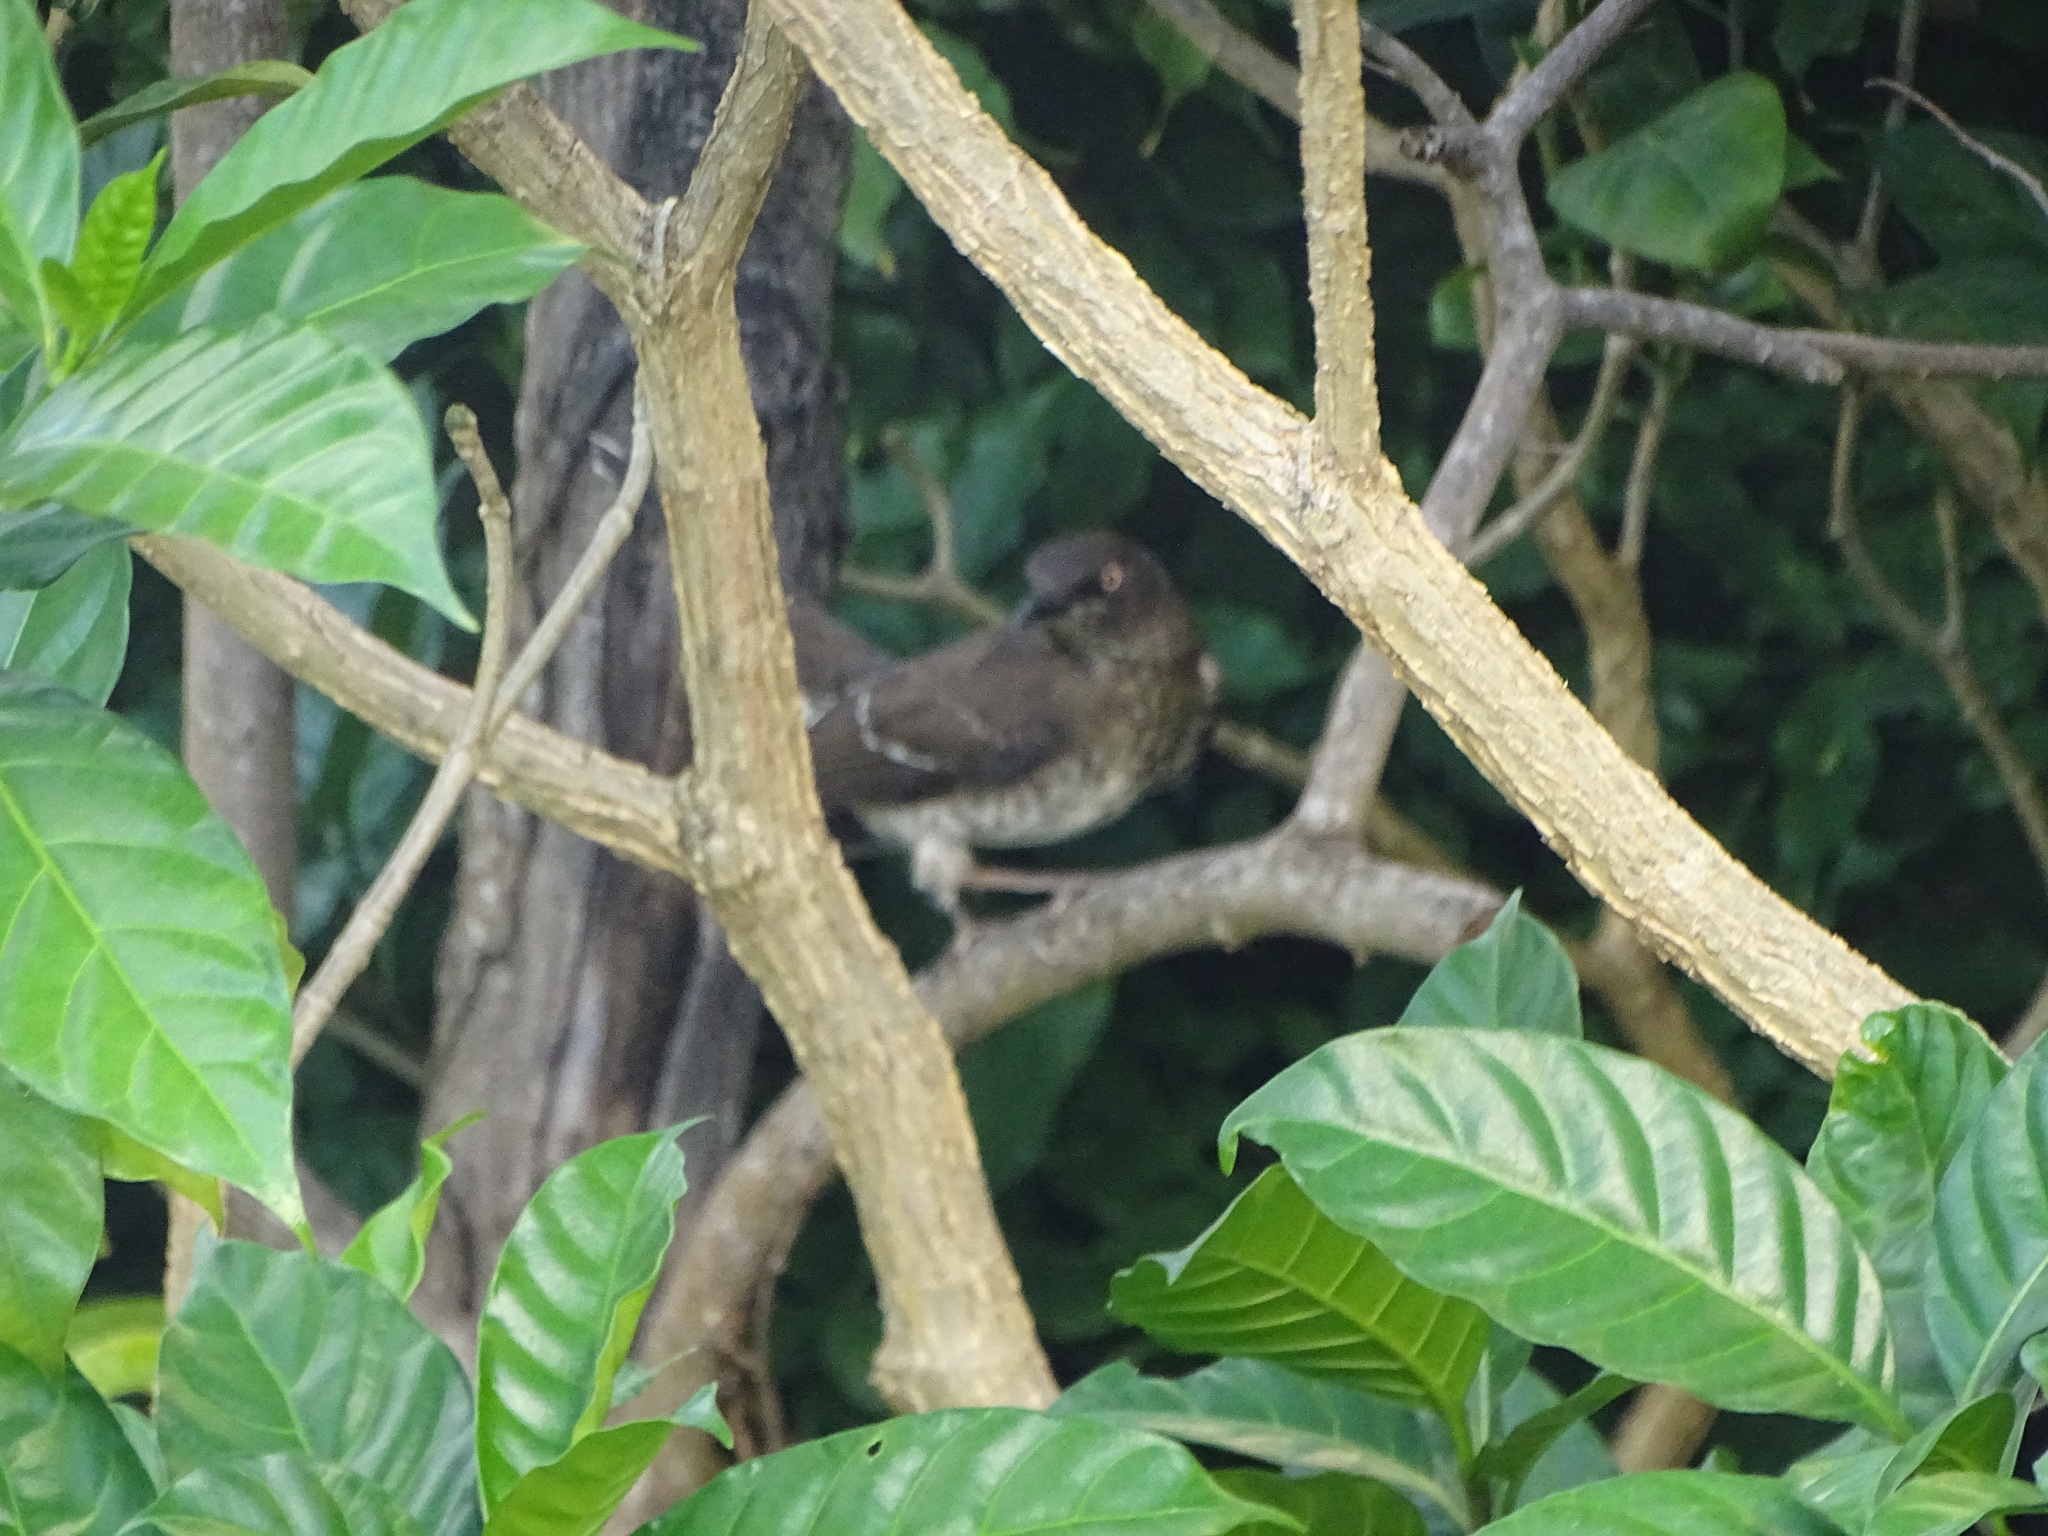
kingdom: Animalia
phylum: Chordata
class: Aves
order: Passeriformes
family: Mimidae
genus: Allenia
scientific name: Allenia fusca
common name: Scaly-breasted thrasher
